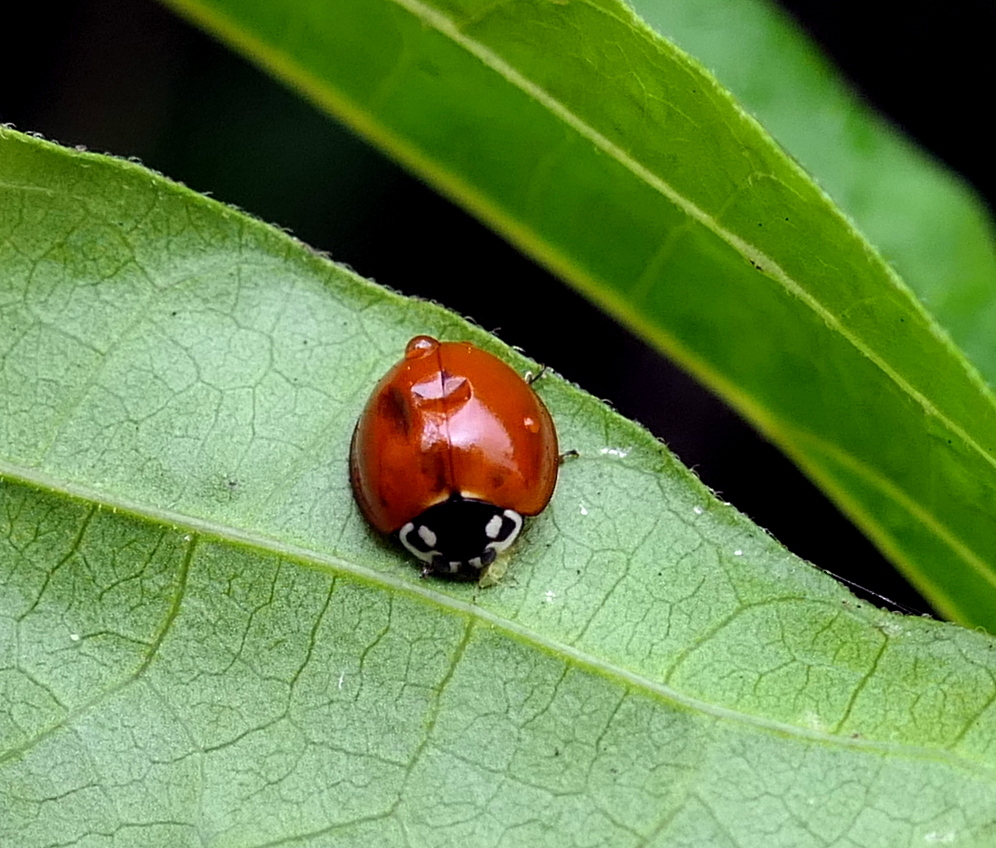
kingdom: Animalia
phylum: Arthropoda
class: Insecta
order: Coleoptera
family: Coccinellidae
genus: Cycloneda
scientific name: Cycloneda sanguinea
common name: Ladybird beetle
